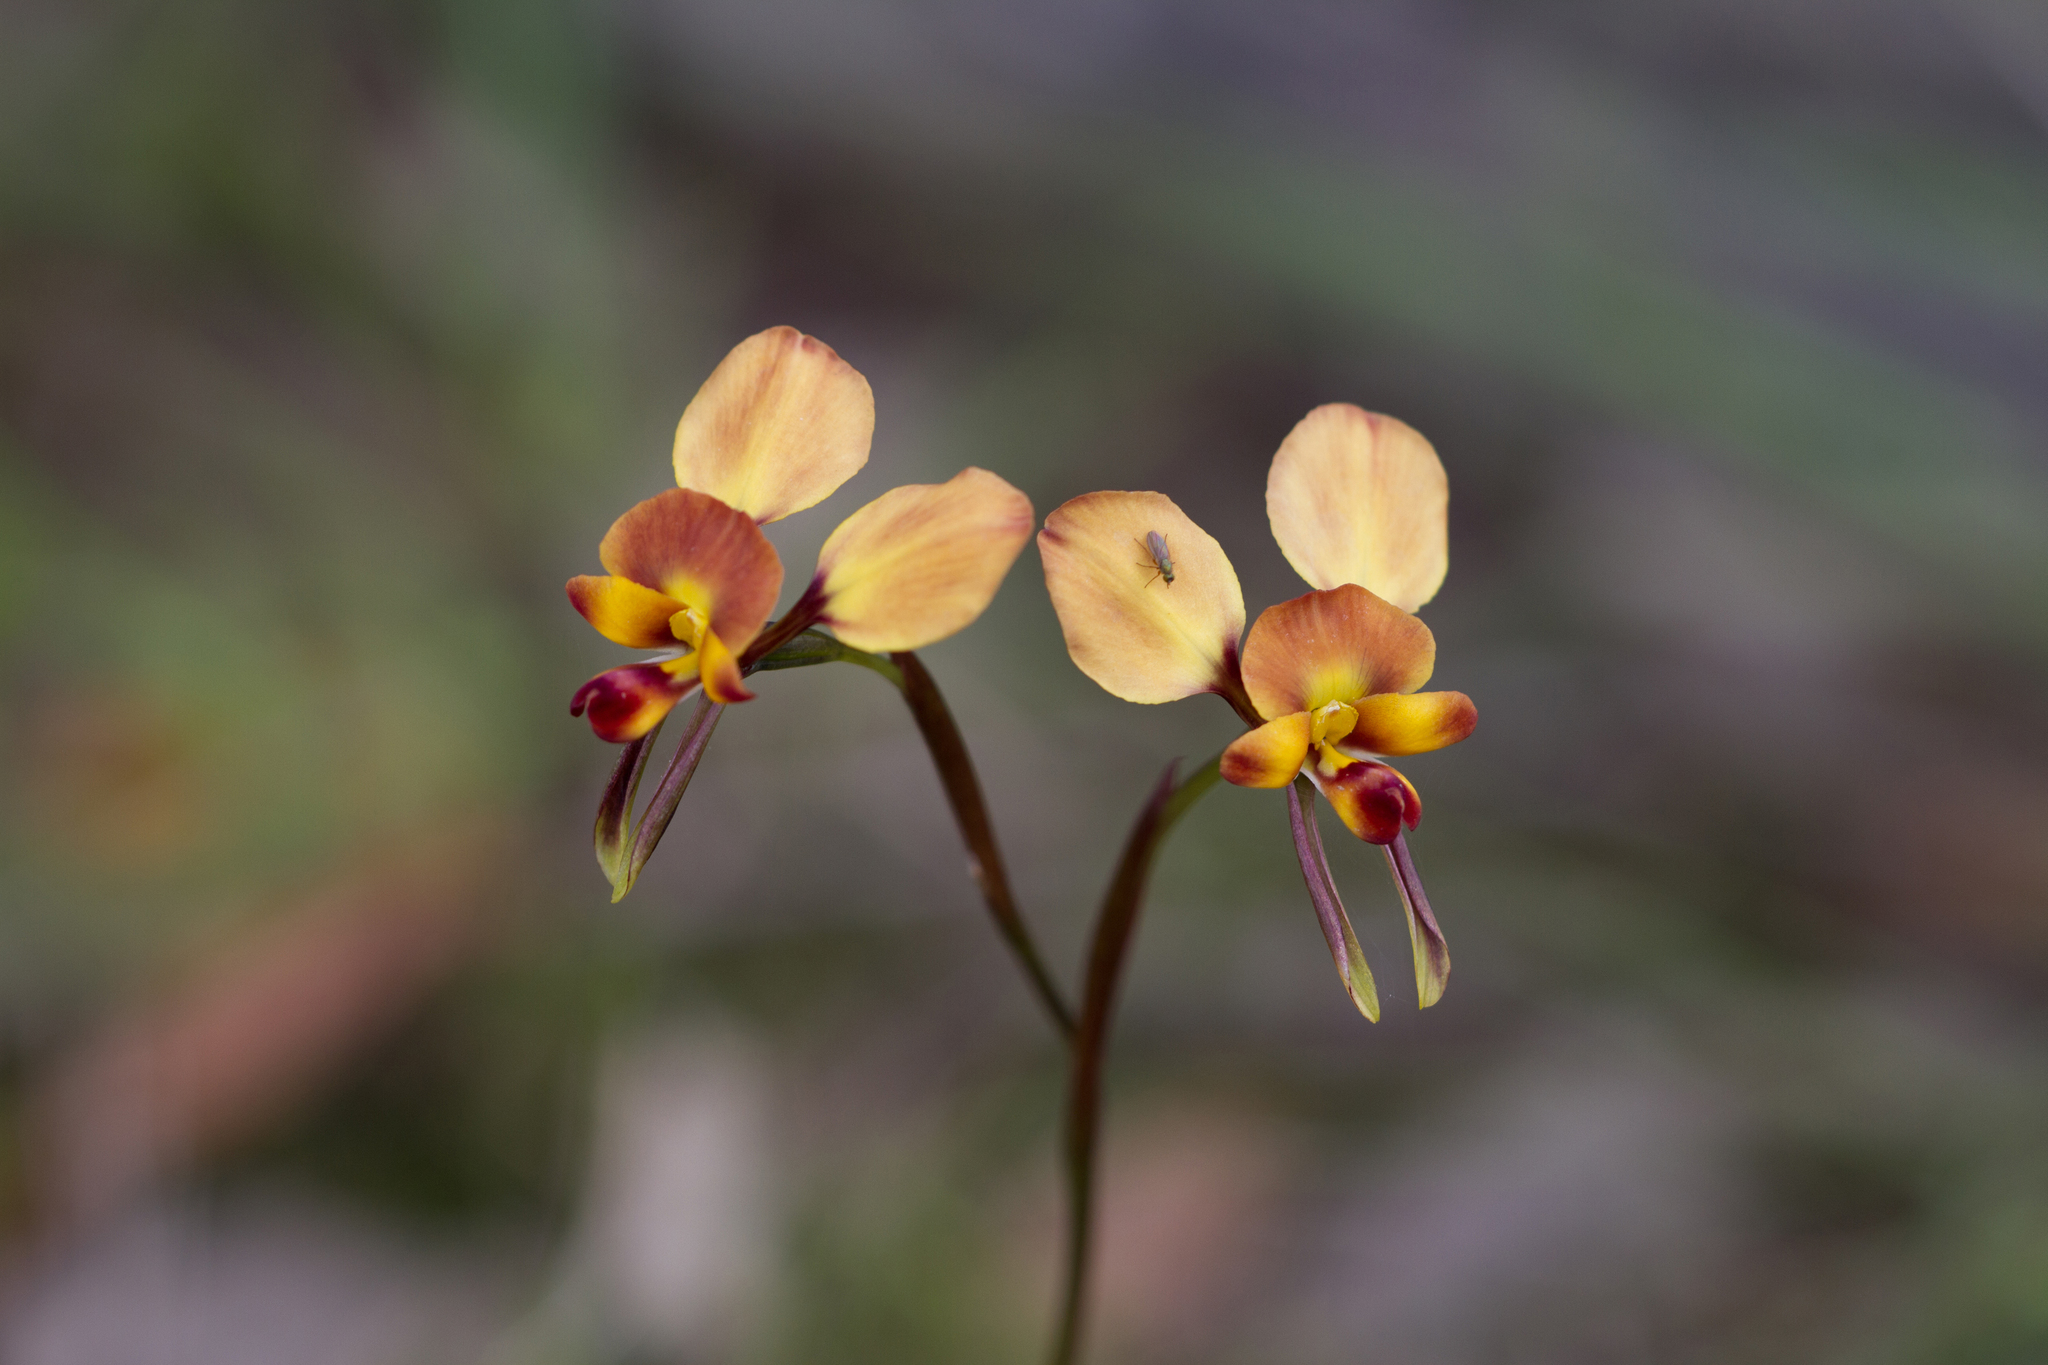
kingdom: Plantae
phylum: Tracheophyta
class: Liliopsida
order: Asparagales
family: Orchidaceae
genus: Diuris
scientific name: Diuris orientis
